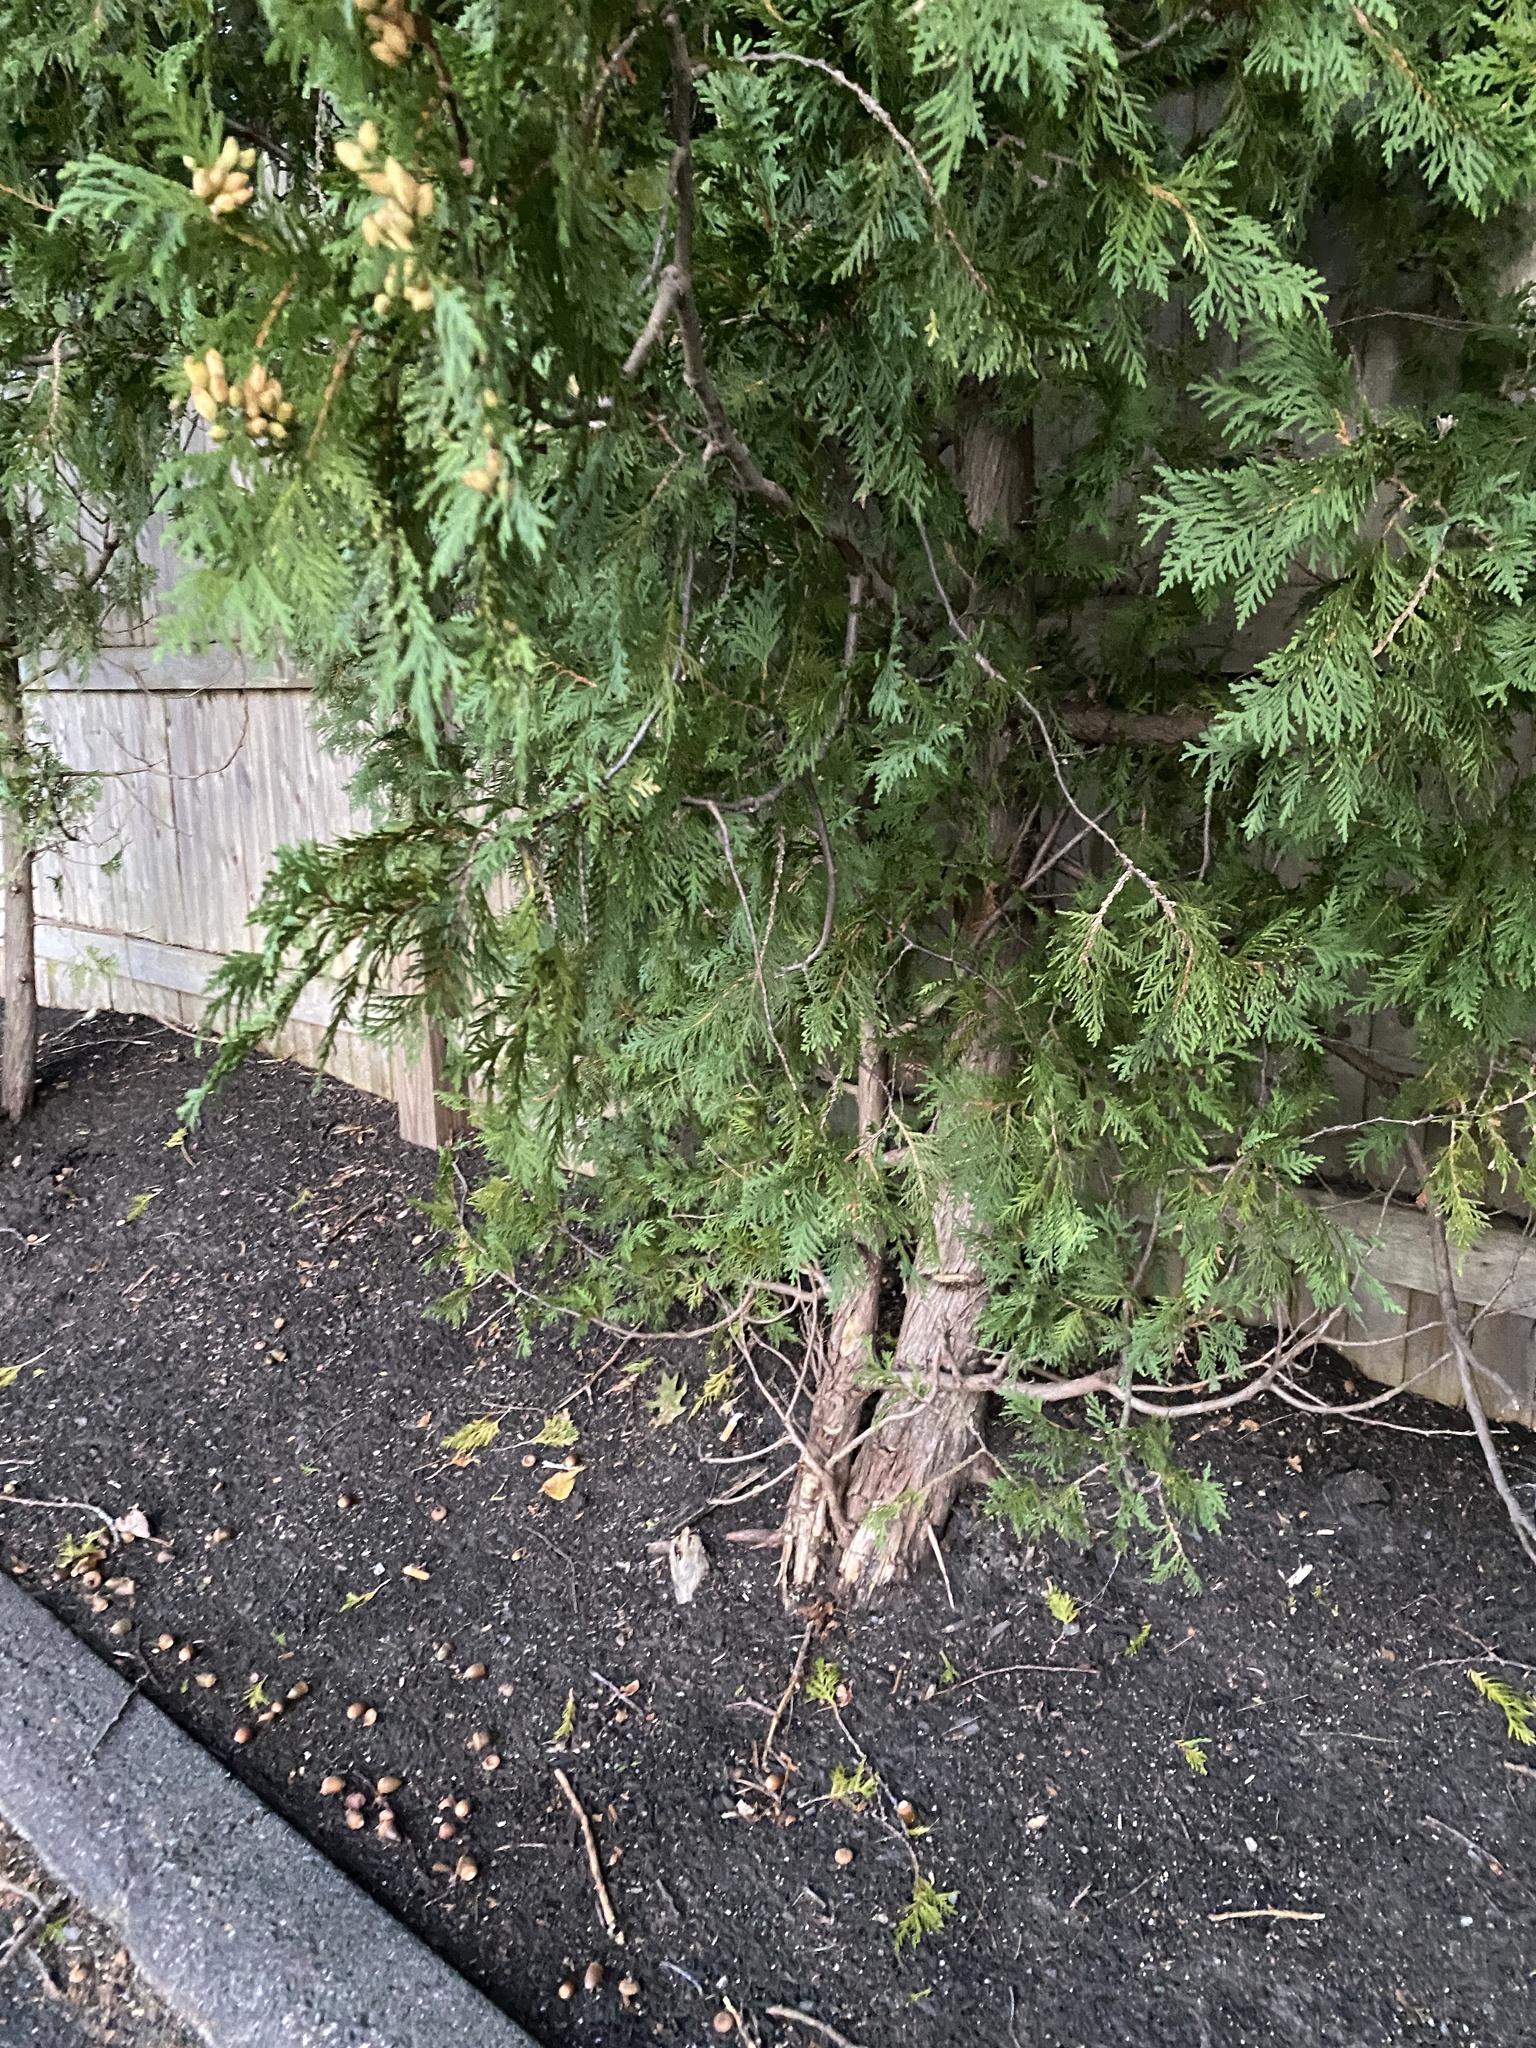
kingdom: Plantae
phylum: Tracheophyta
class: Pinopsida
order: Pinales
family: Cupressaceae
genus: Thuja
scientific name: Thuja occidentalis
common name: Northern white-cedar
